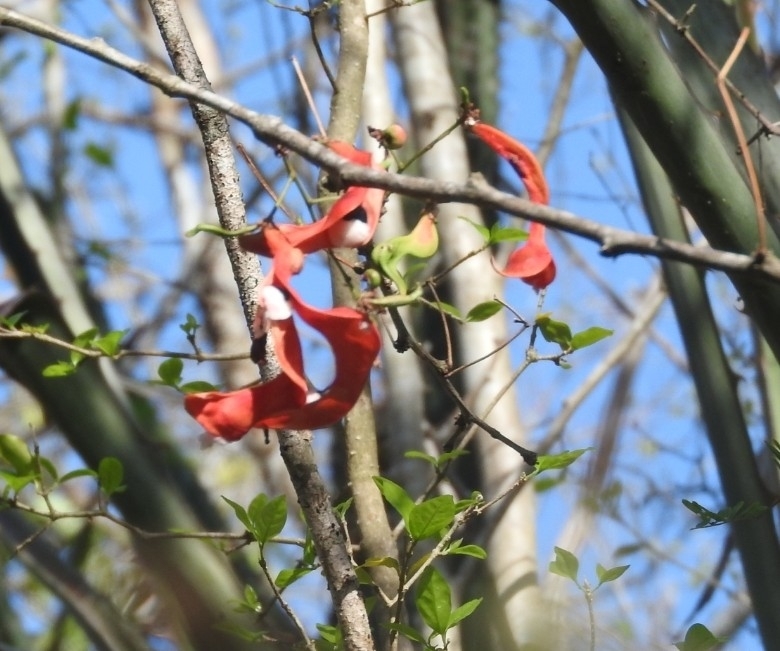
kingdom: Plantae
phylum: Tracheophyta
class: Magnoliopsida
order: Fabales
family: Fabaceae
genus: Pithecellobium
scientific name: Pithecellobium dulce
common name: Monkeypod
